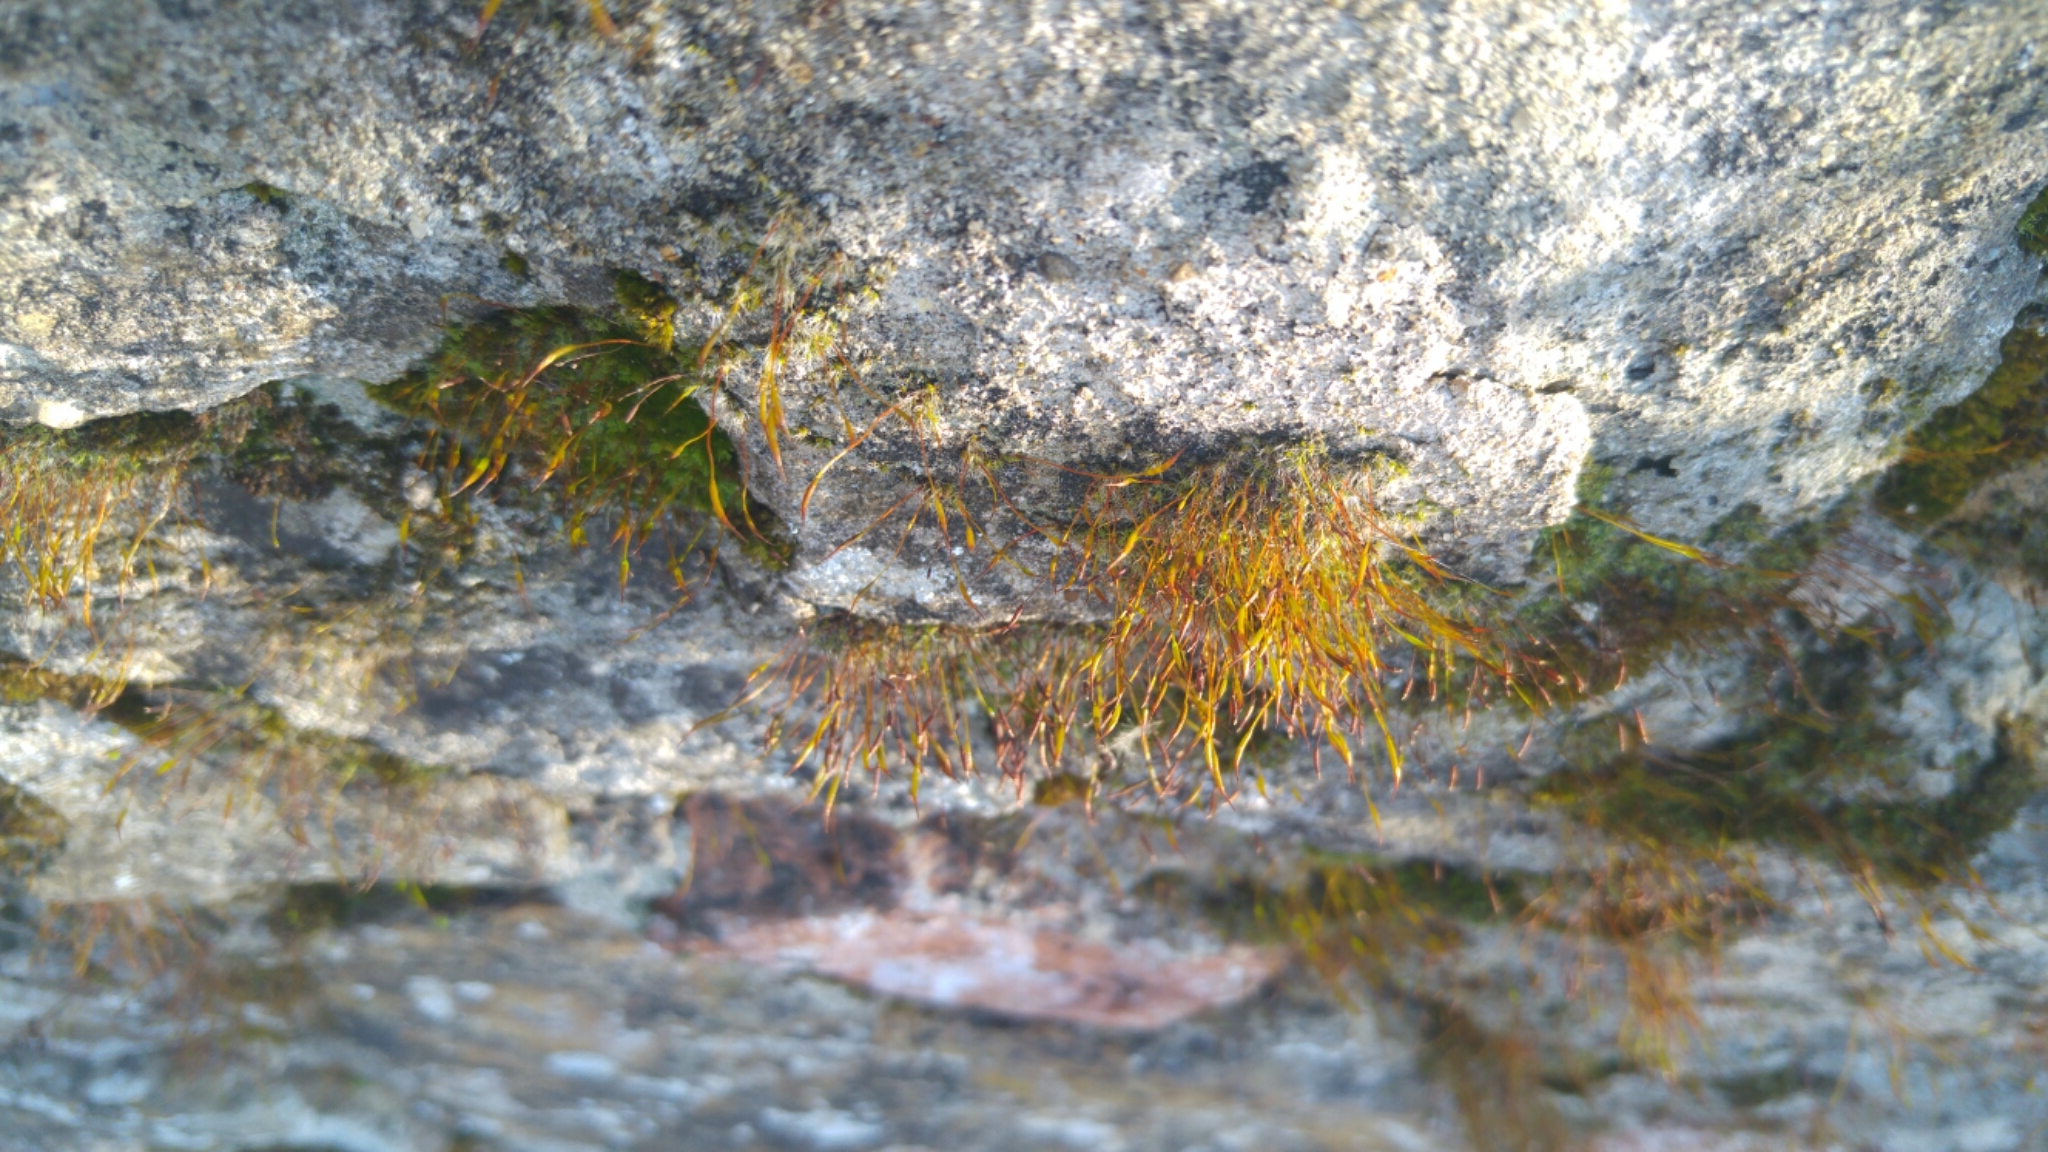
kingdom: Plantae
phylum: Bryophyta
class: Bryopsida
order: Pottiales
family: Pottiaceae
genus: Tortula
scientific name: Tortula muralis
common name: Wall screw-moss
